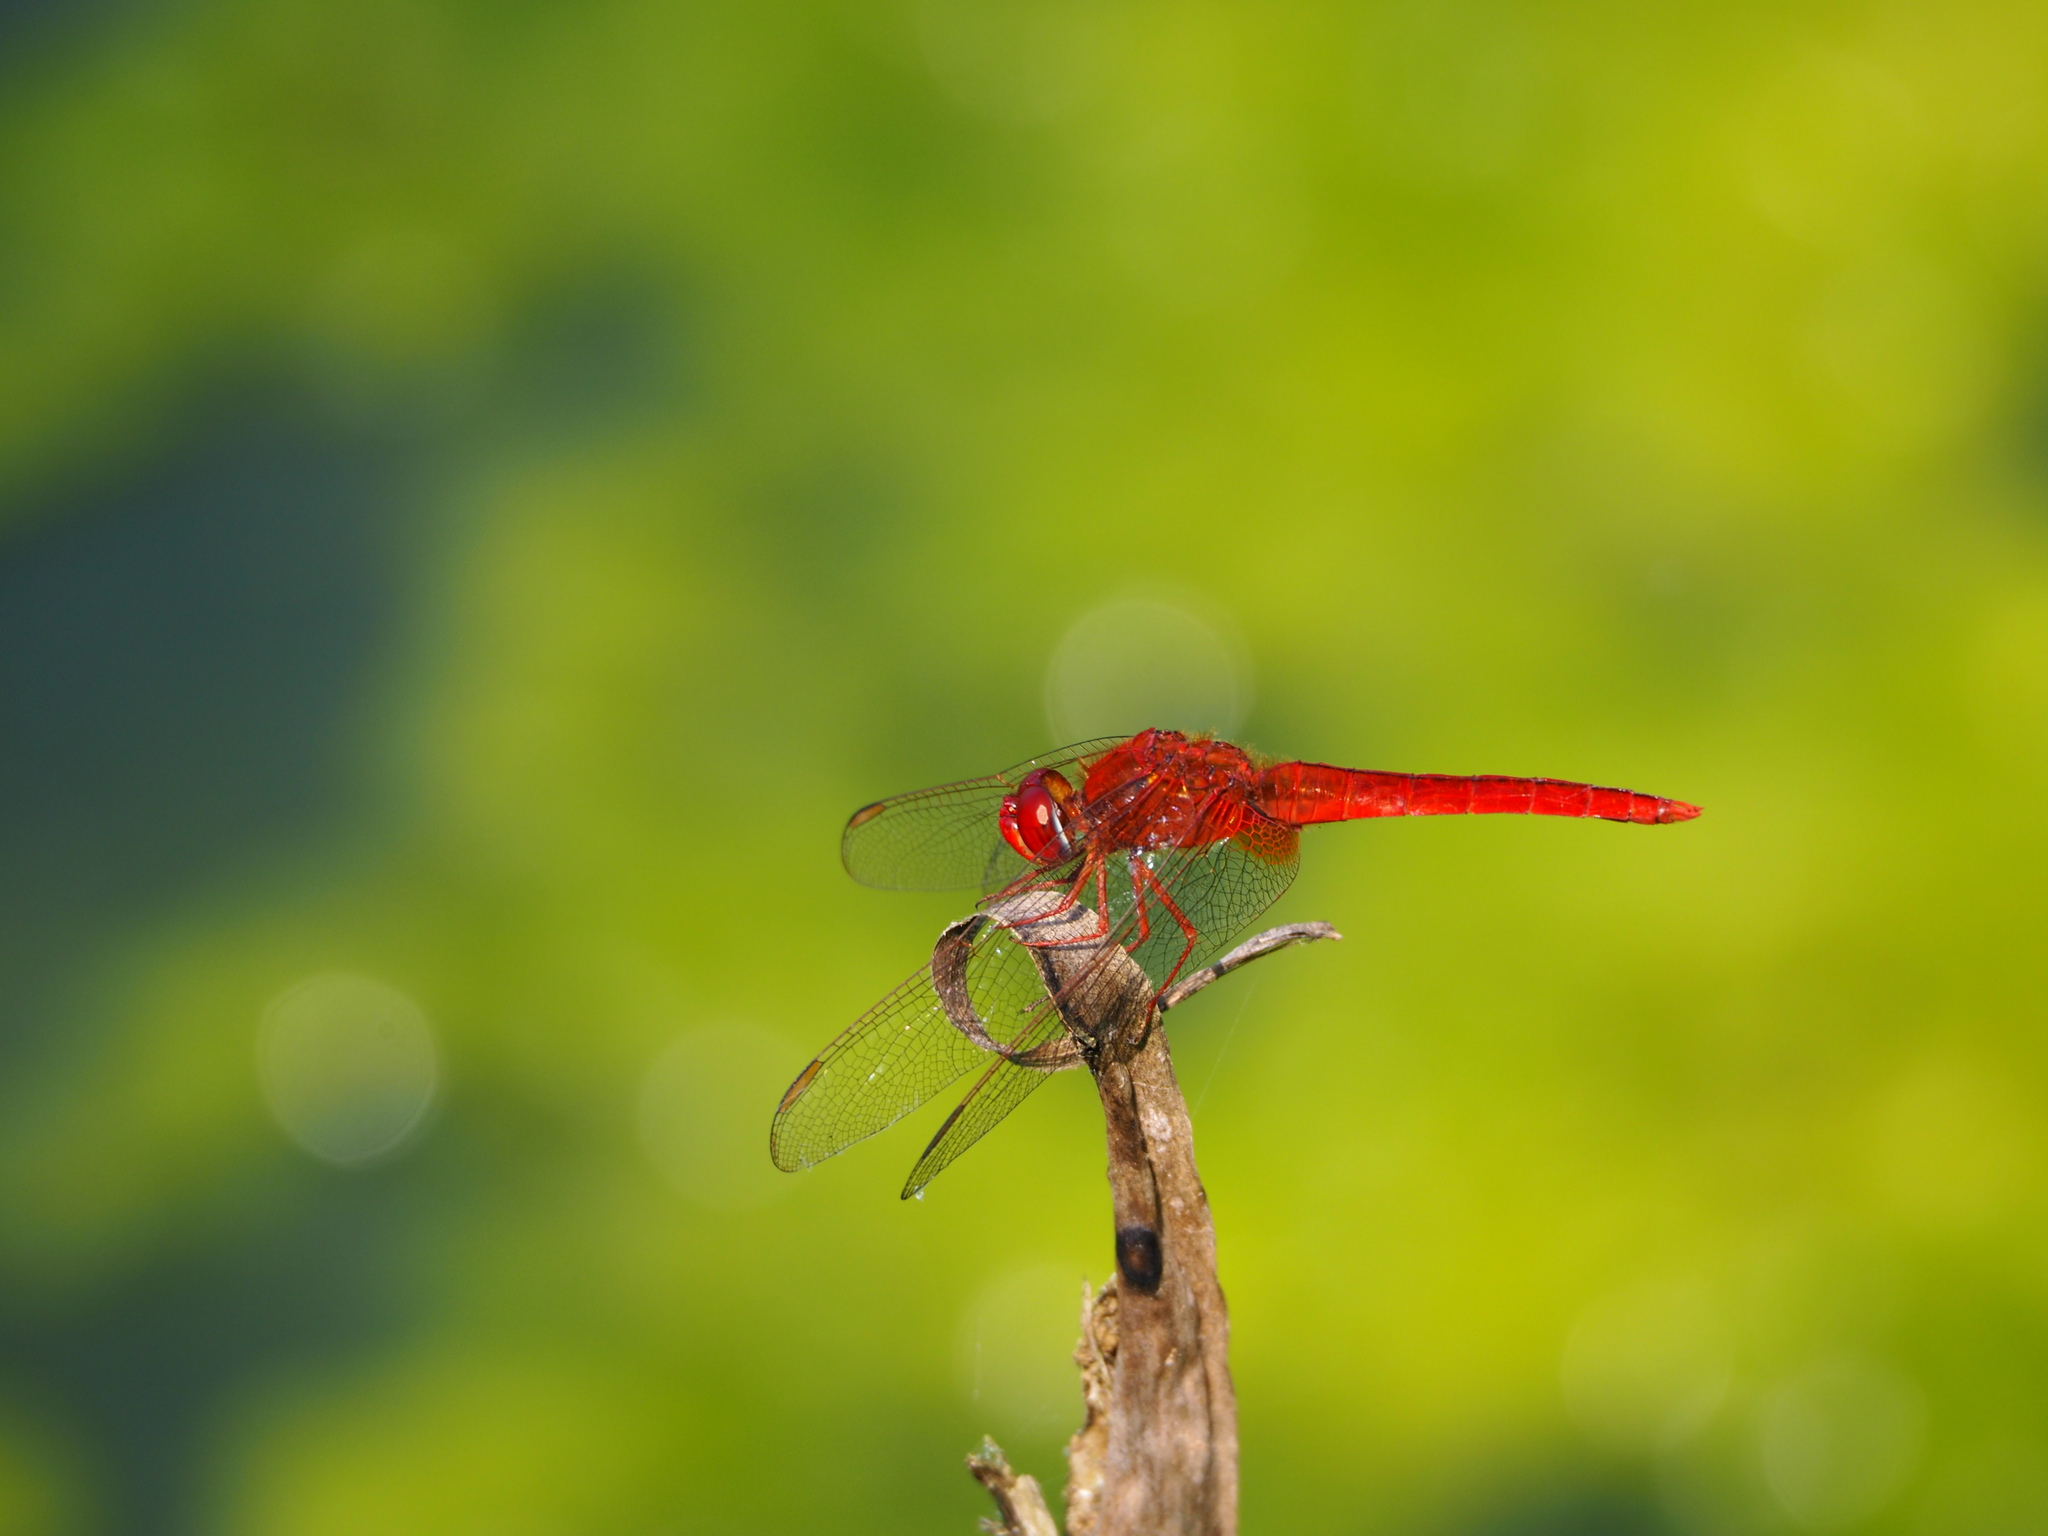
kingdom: Animalia
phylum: Arthropoda
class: Insecta
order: Odonata
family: Libellulidae
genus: Crocothemis
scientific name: Crocothemis servilia
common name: Scarlet skimmer
